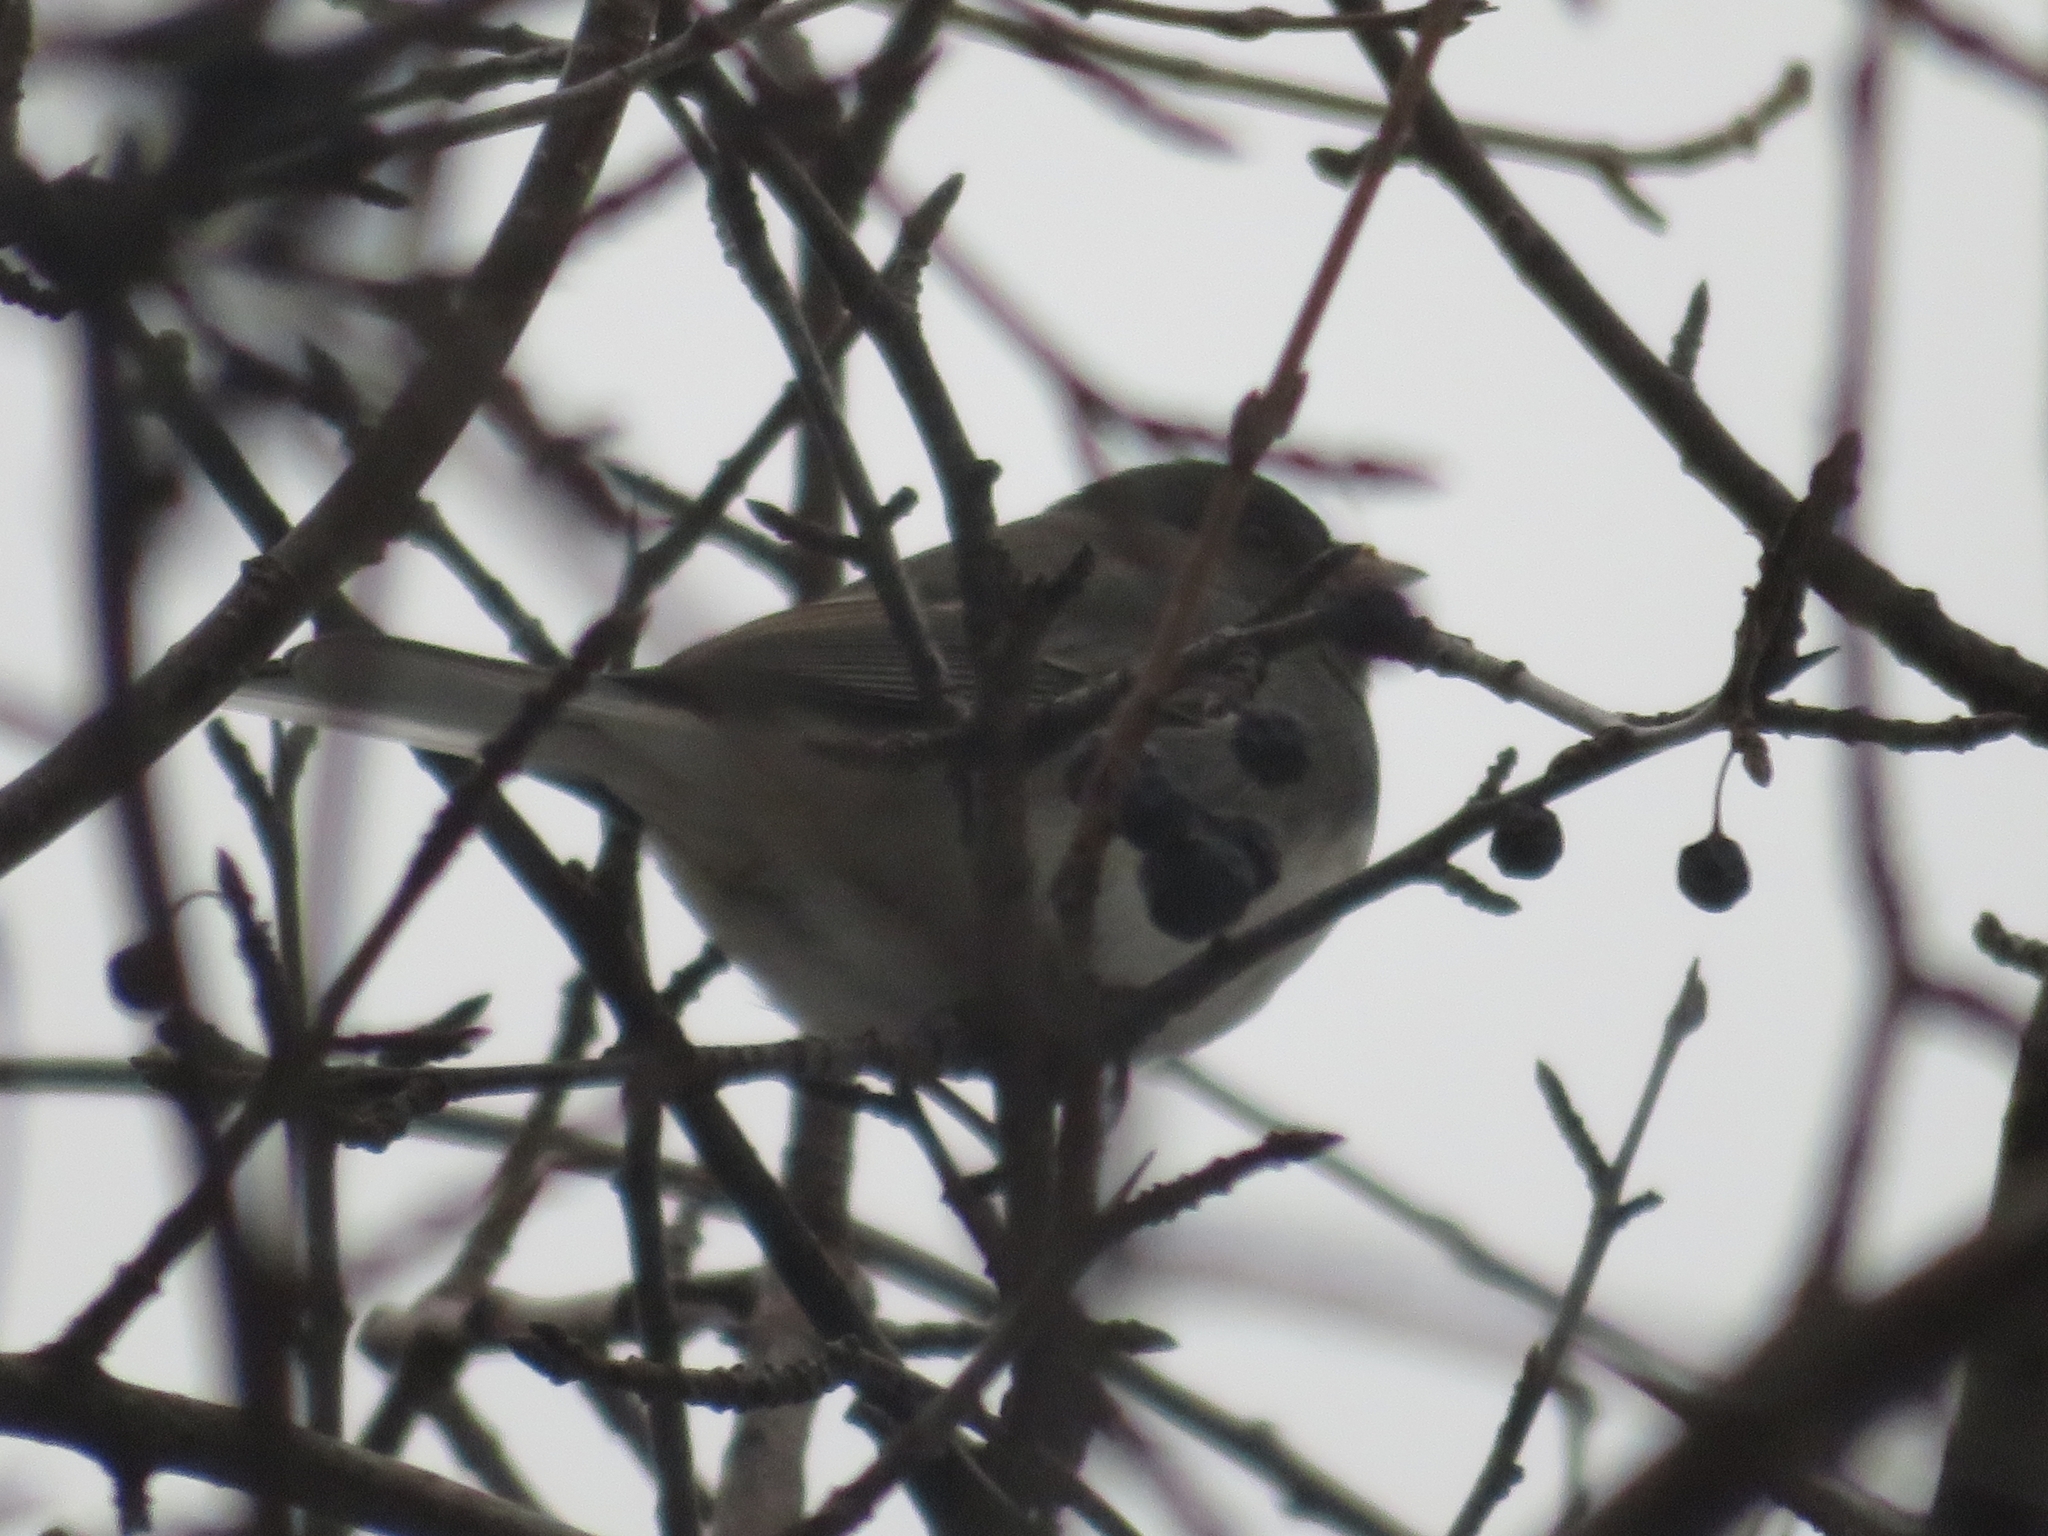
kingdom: Animalia
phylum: Chordata
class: Aves
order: Passeriformes
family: Passerellidae
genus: Junco
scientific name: Junco hyemalis
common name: Dark-eyed junco
